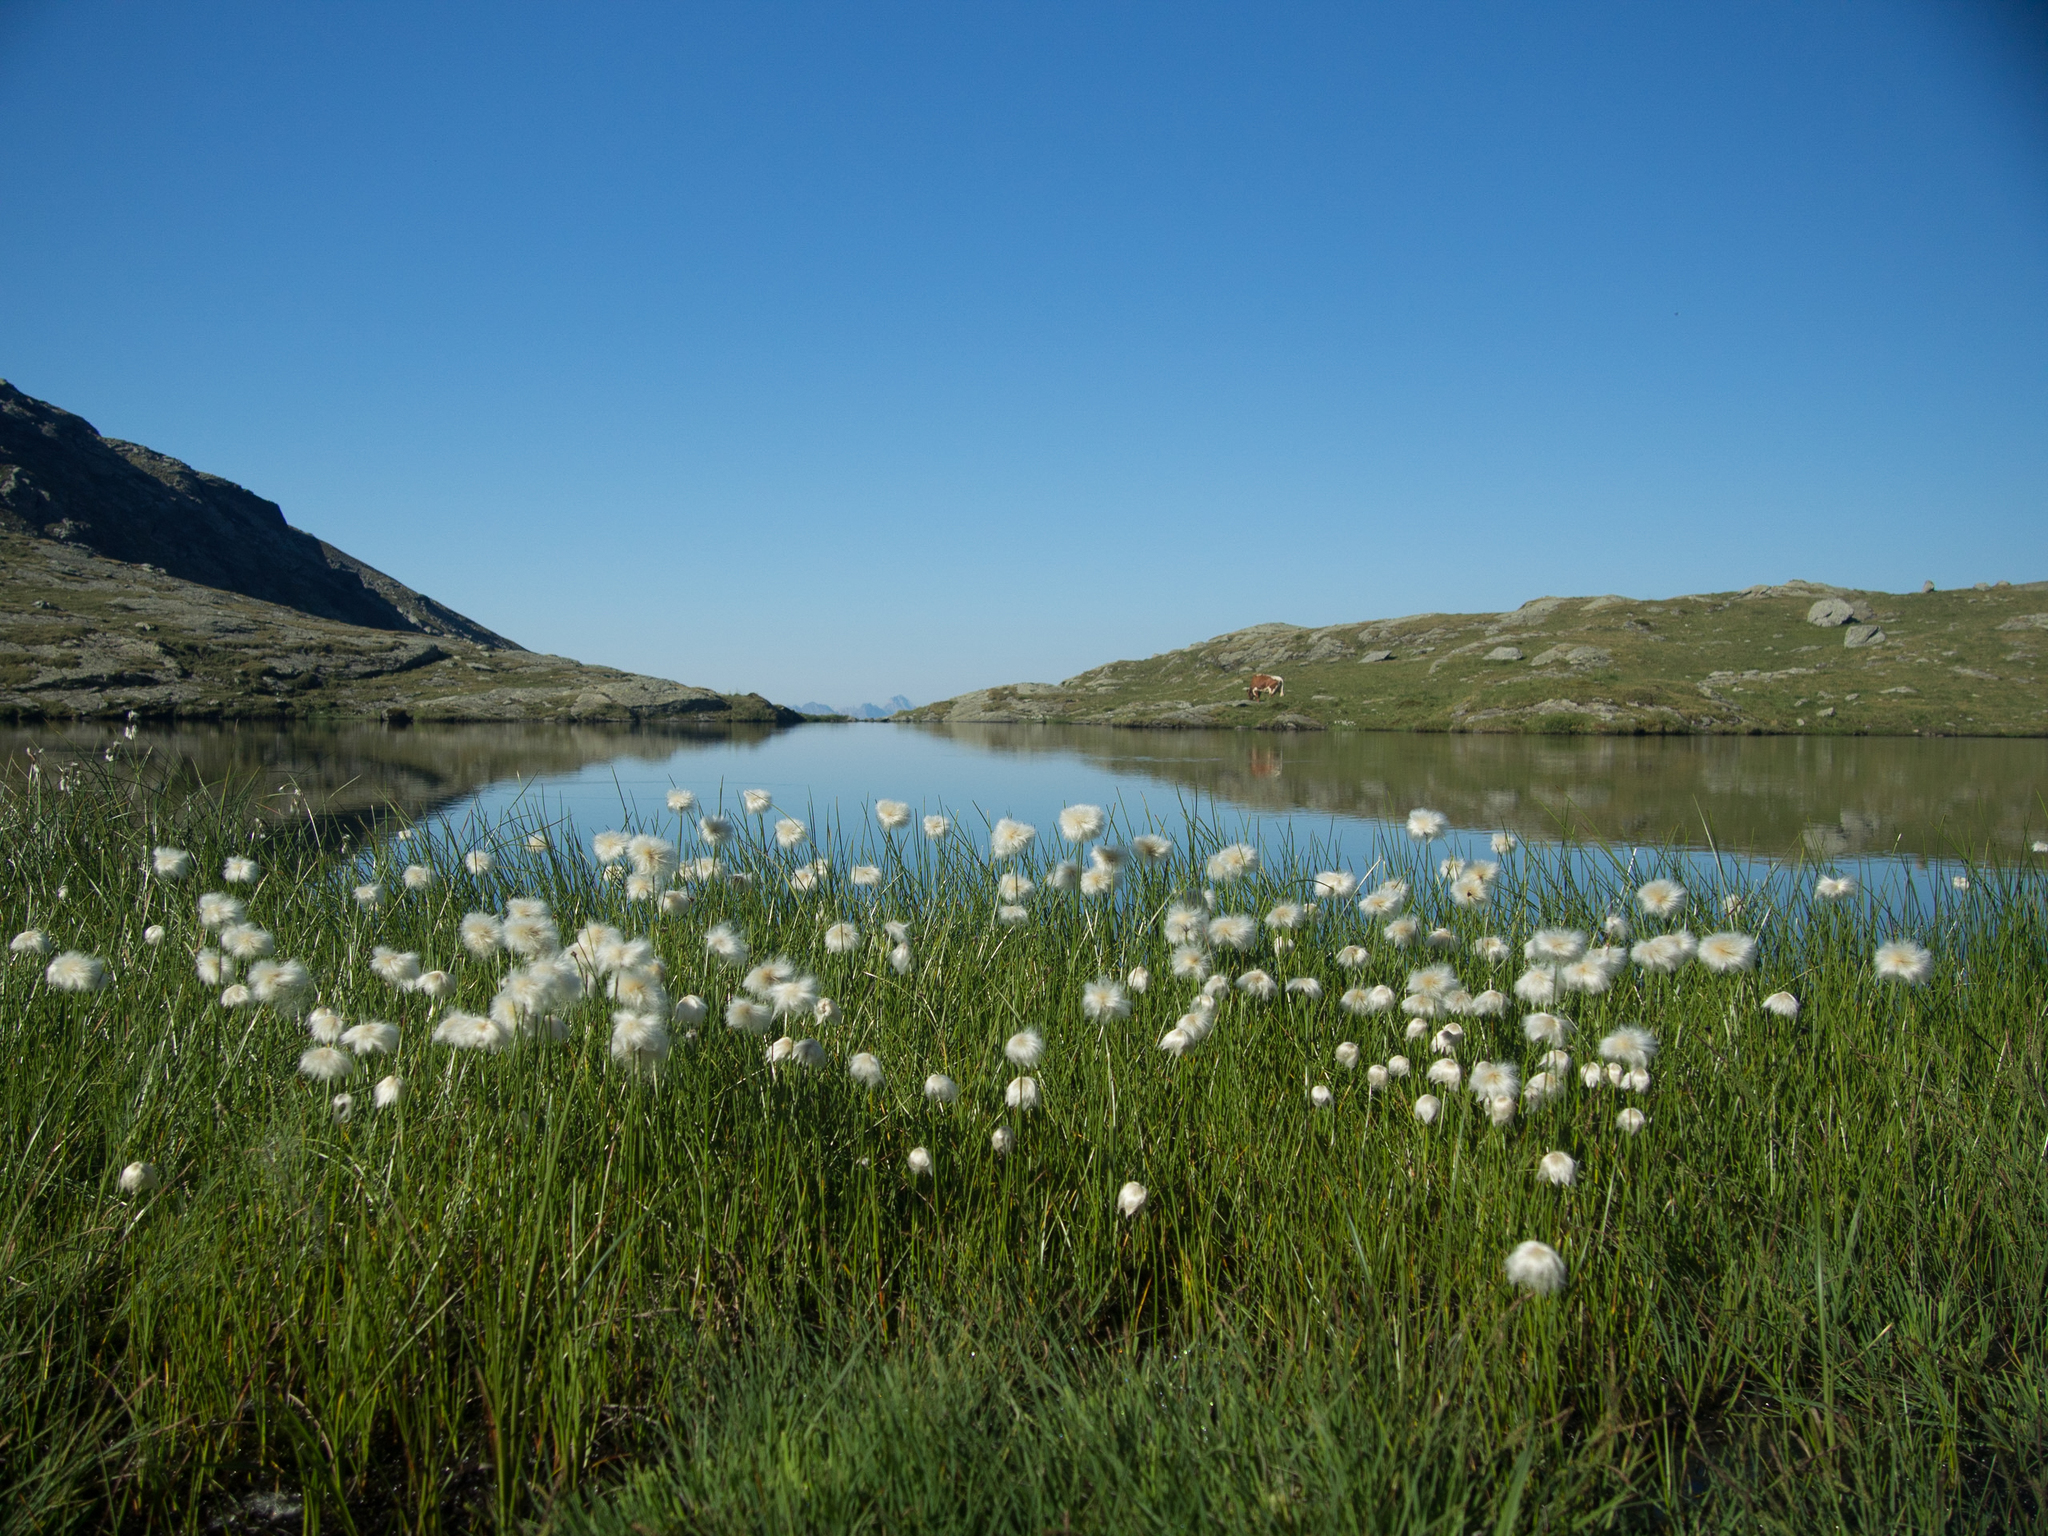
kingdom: Plantae
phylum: Tracheophyta
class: Liliopsida
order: Poales
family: Cyperaceae
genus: Eriophorum
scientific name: Eriophorum scheuchzeri
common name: Scheuchzer's cottongrass
